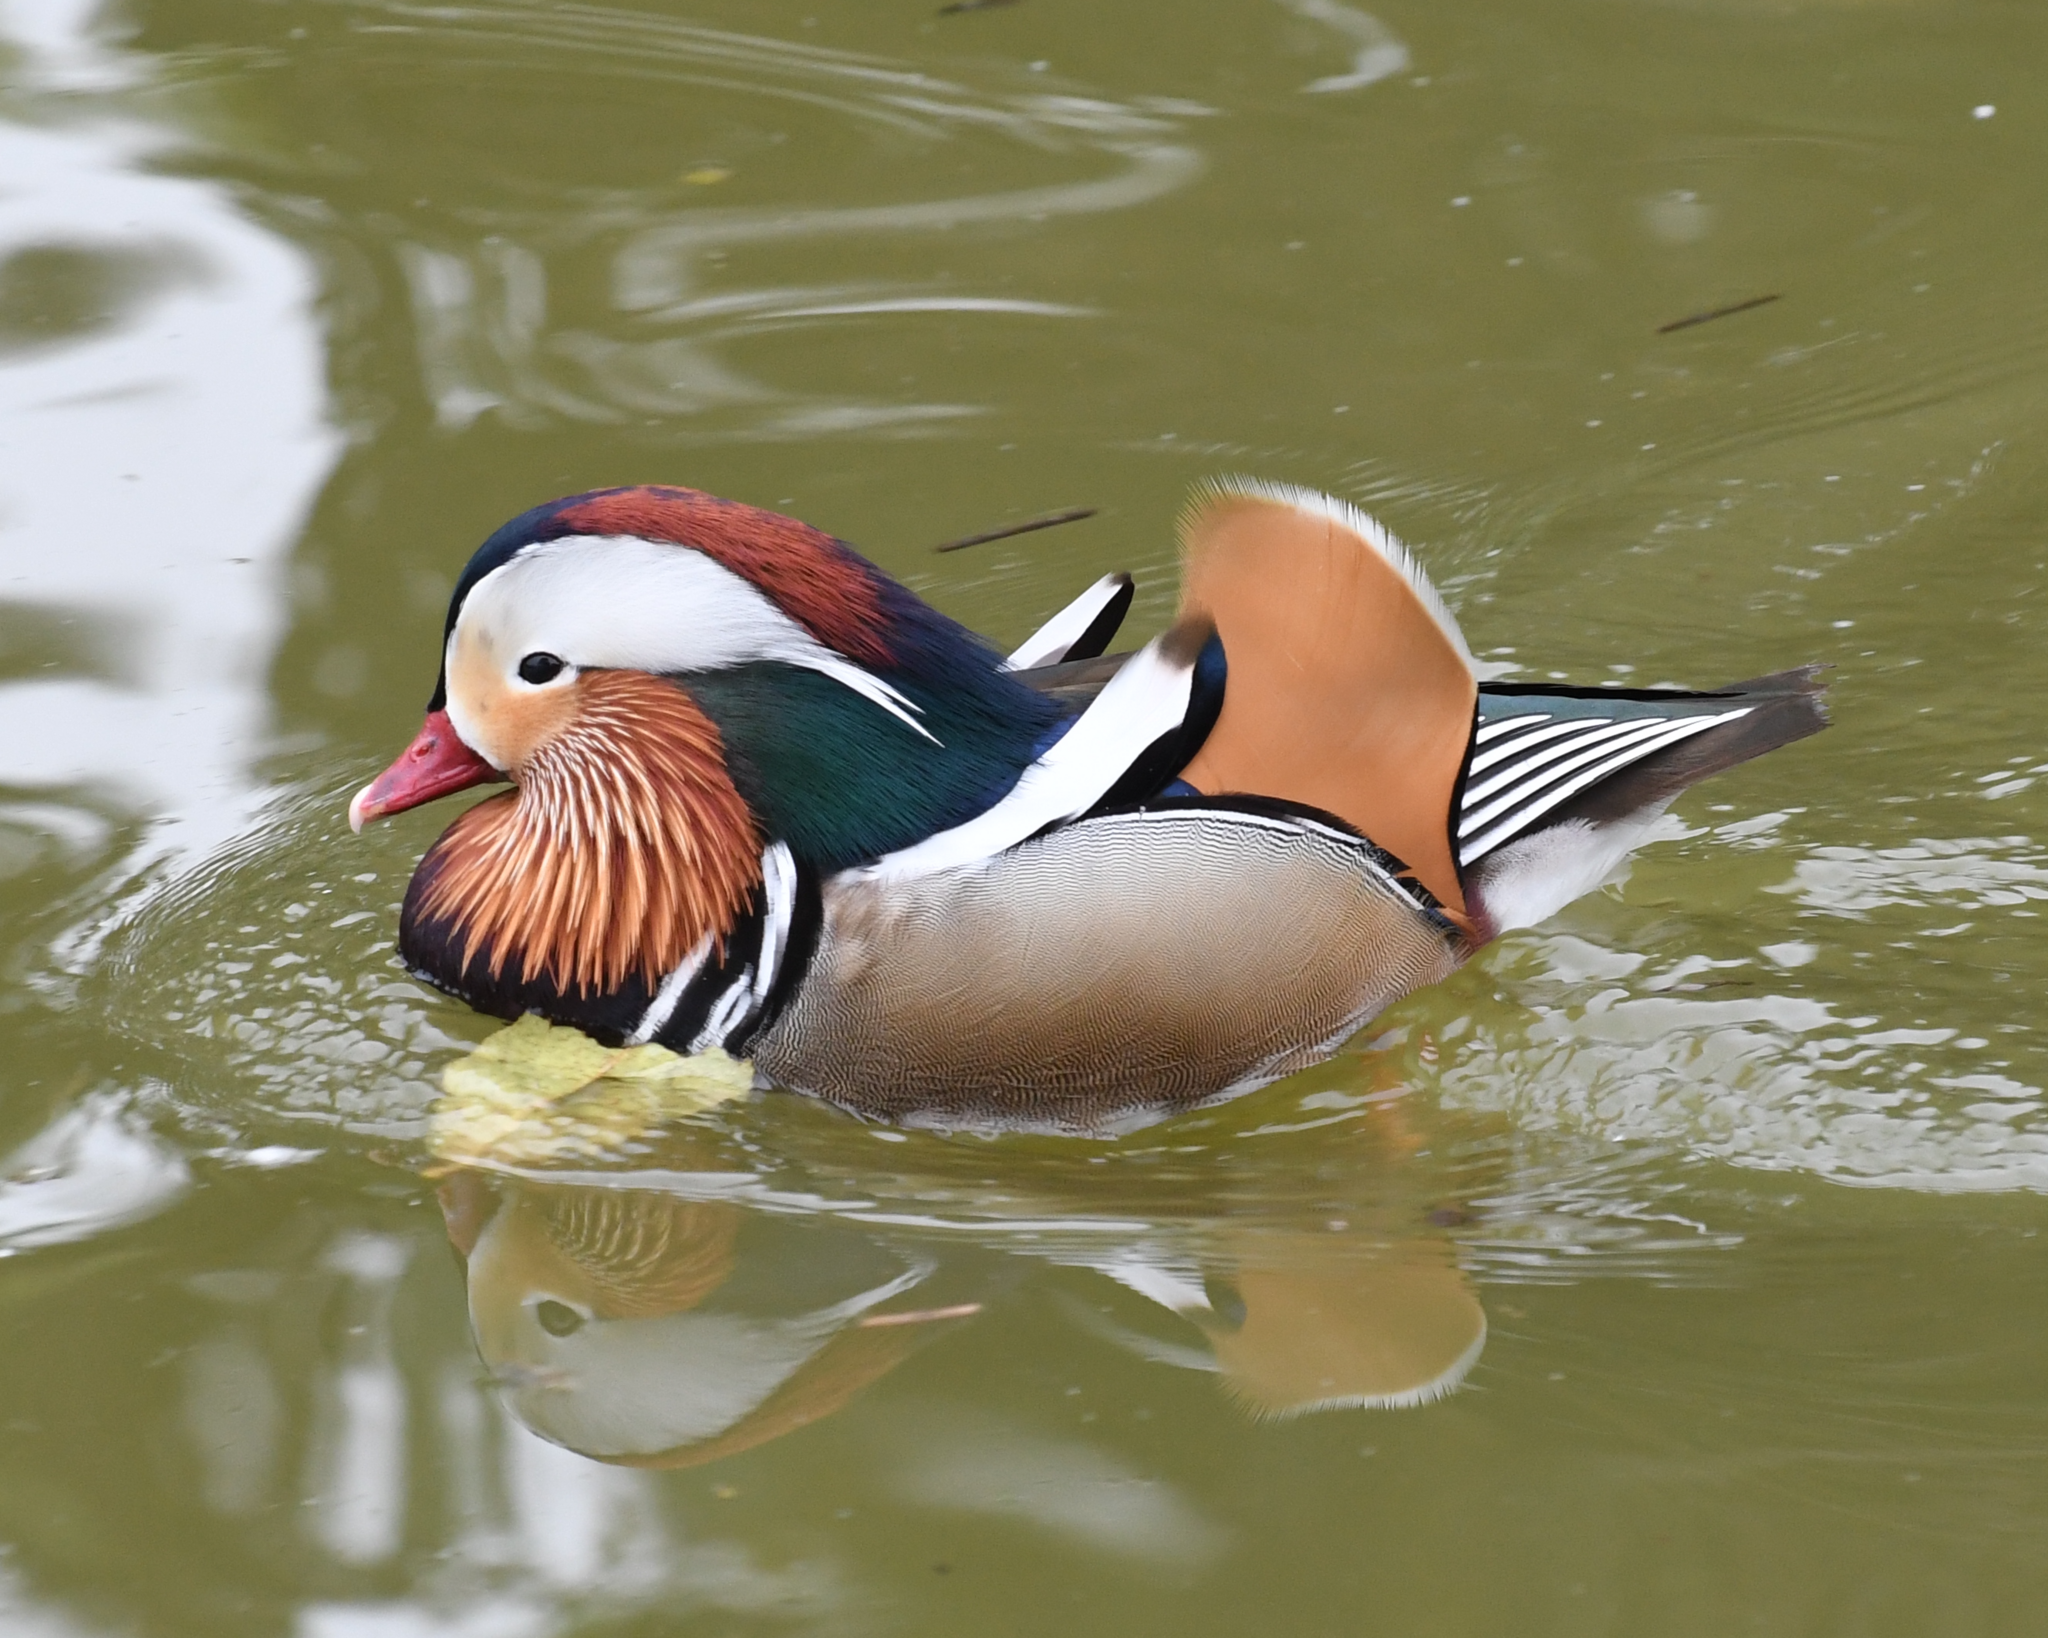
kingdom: Animalia
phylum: Chordata
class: Aves
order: Anseriformes
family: Anatidae
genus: Aix
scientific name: Aix galericulata
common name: Mandarin duck
